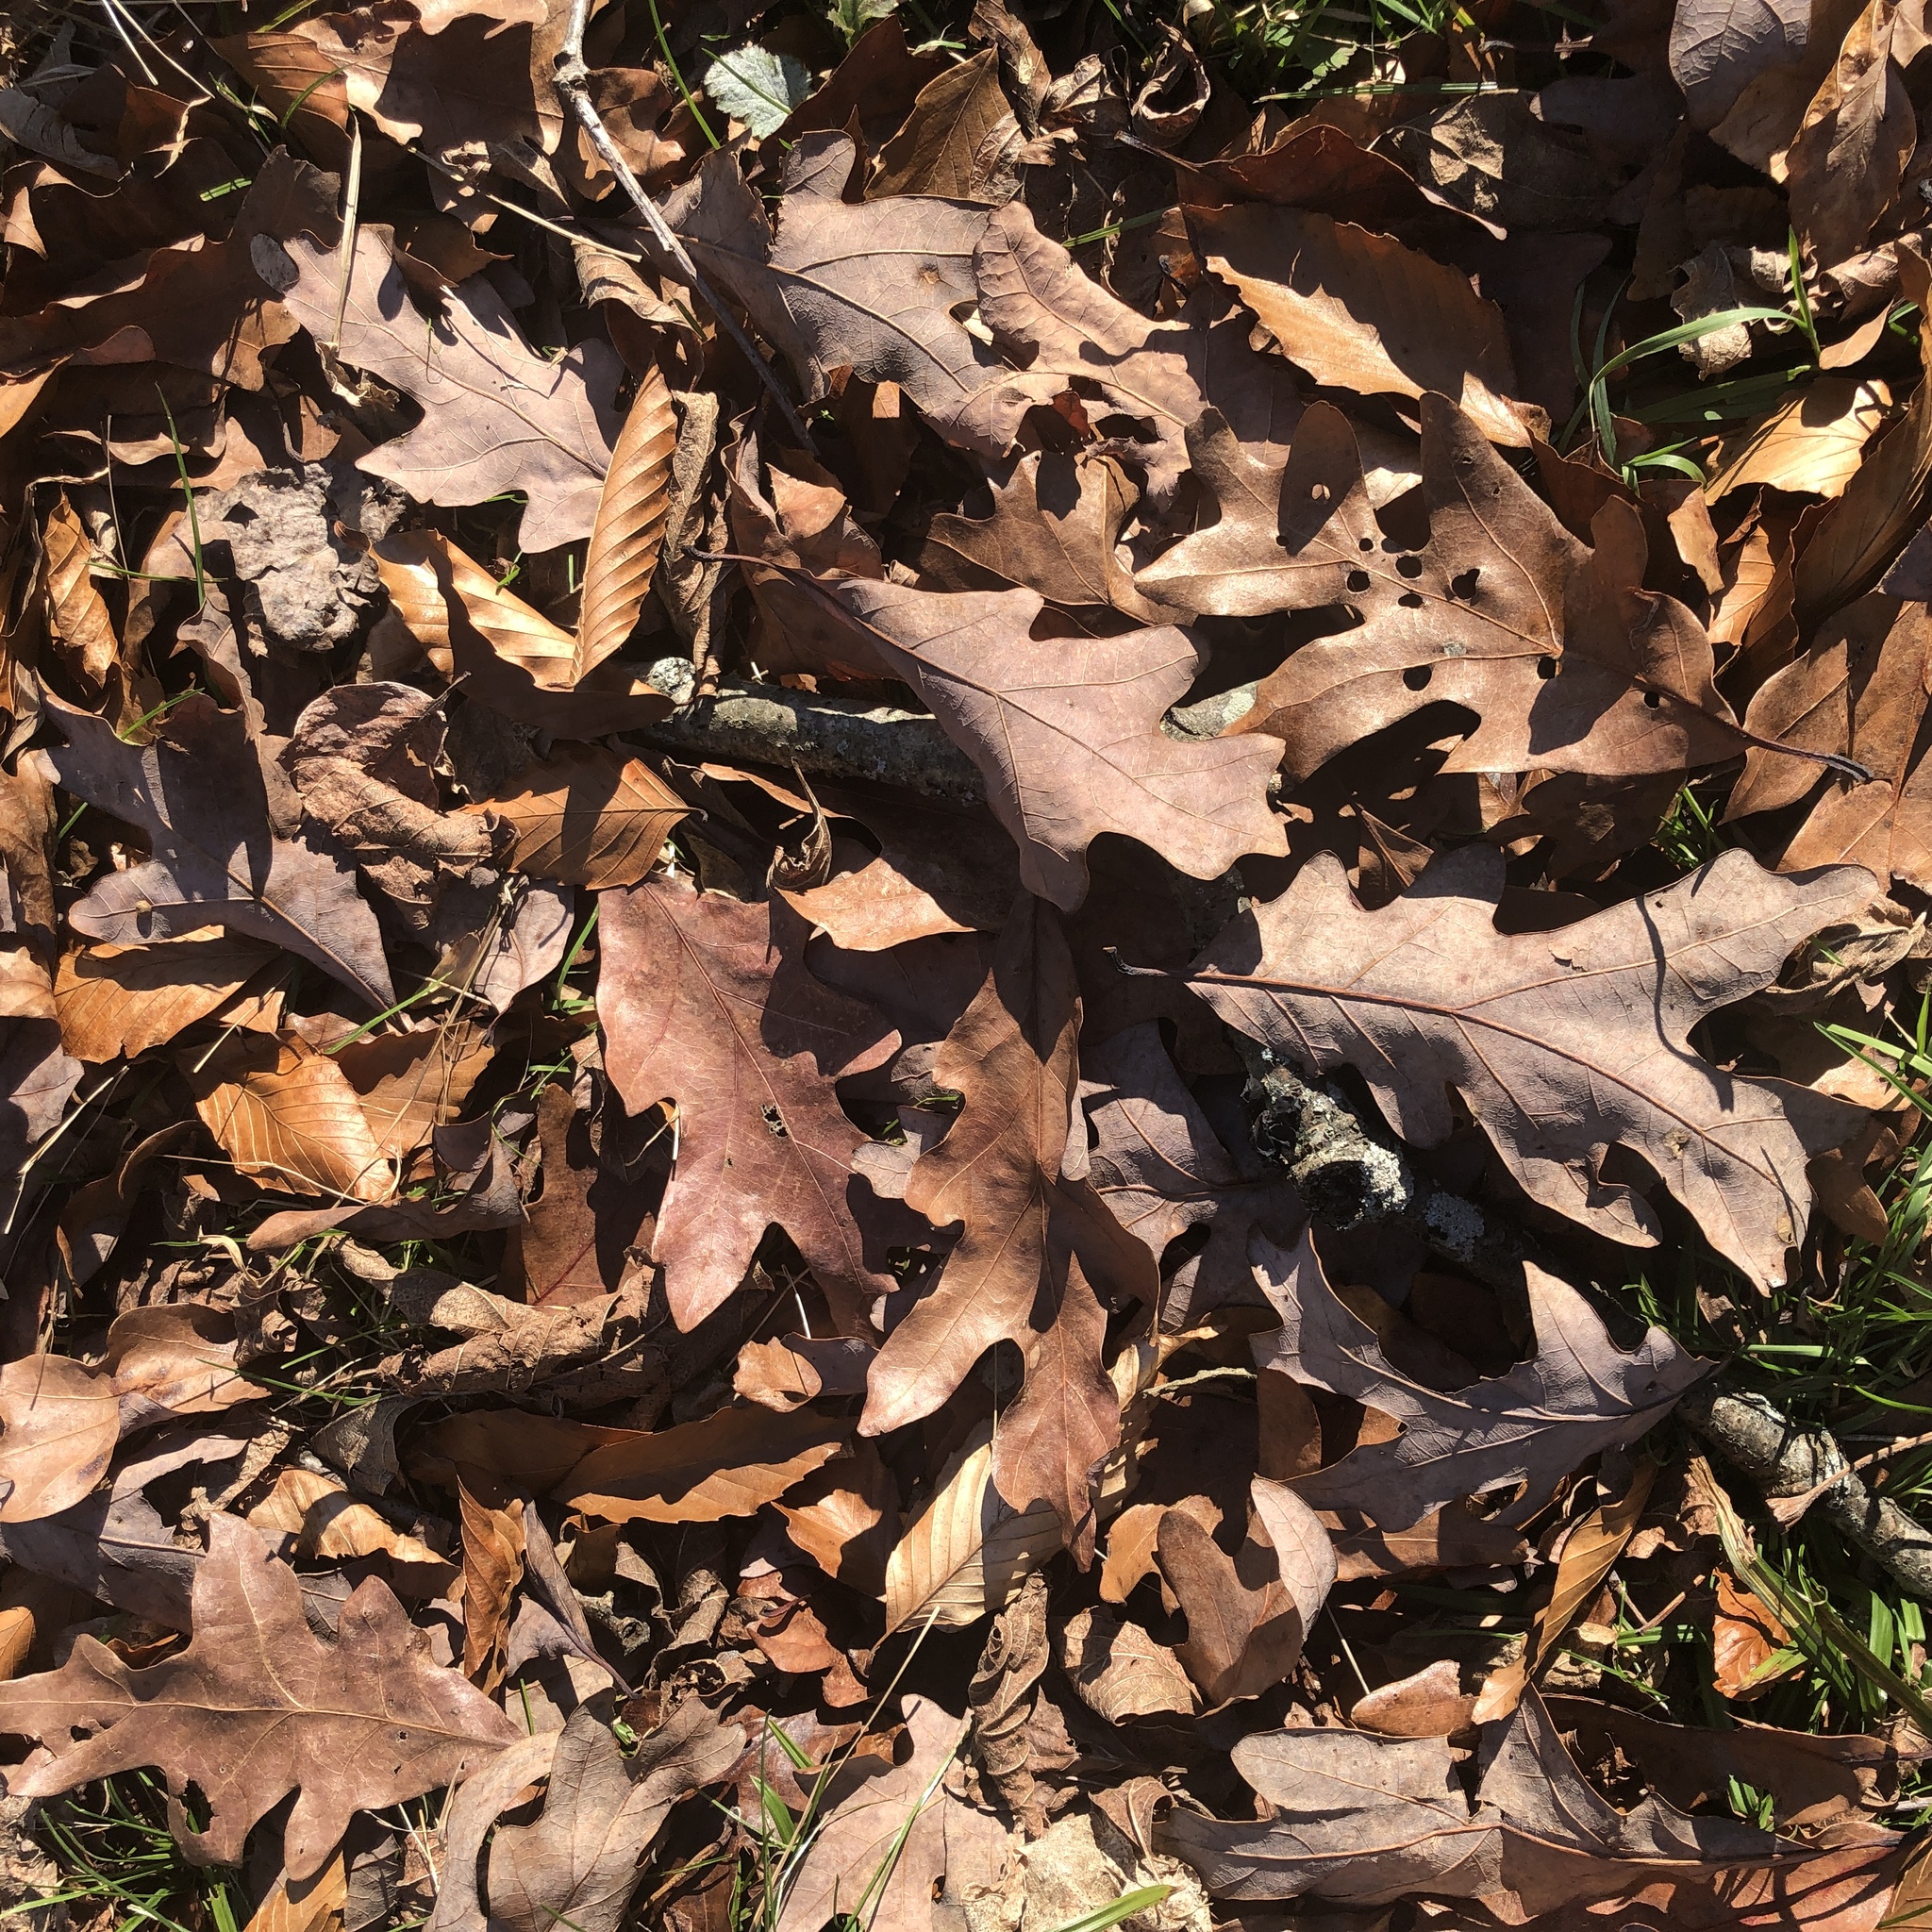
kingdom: Plantae
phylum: Tracheophyta
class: Magnoliopsida
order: Fagales
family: Fagaceae
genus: Quercus
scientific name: Quercus alba
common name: White oak
